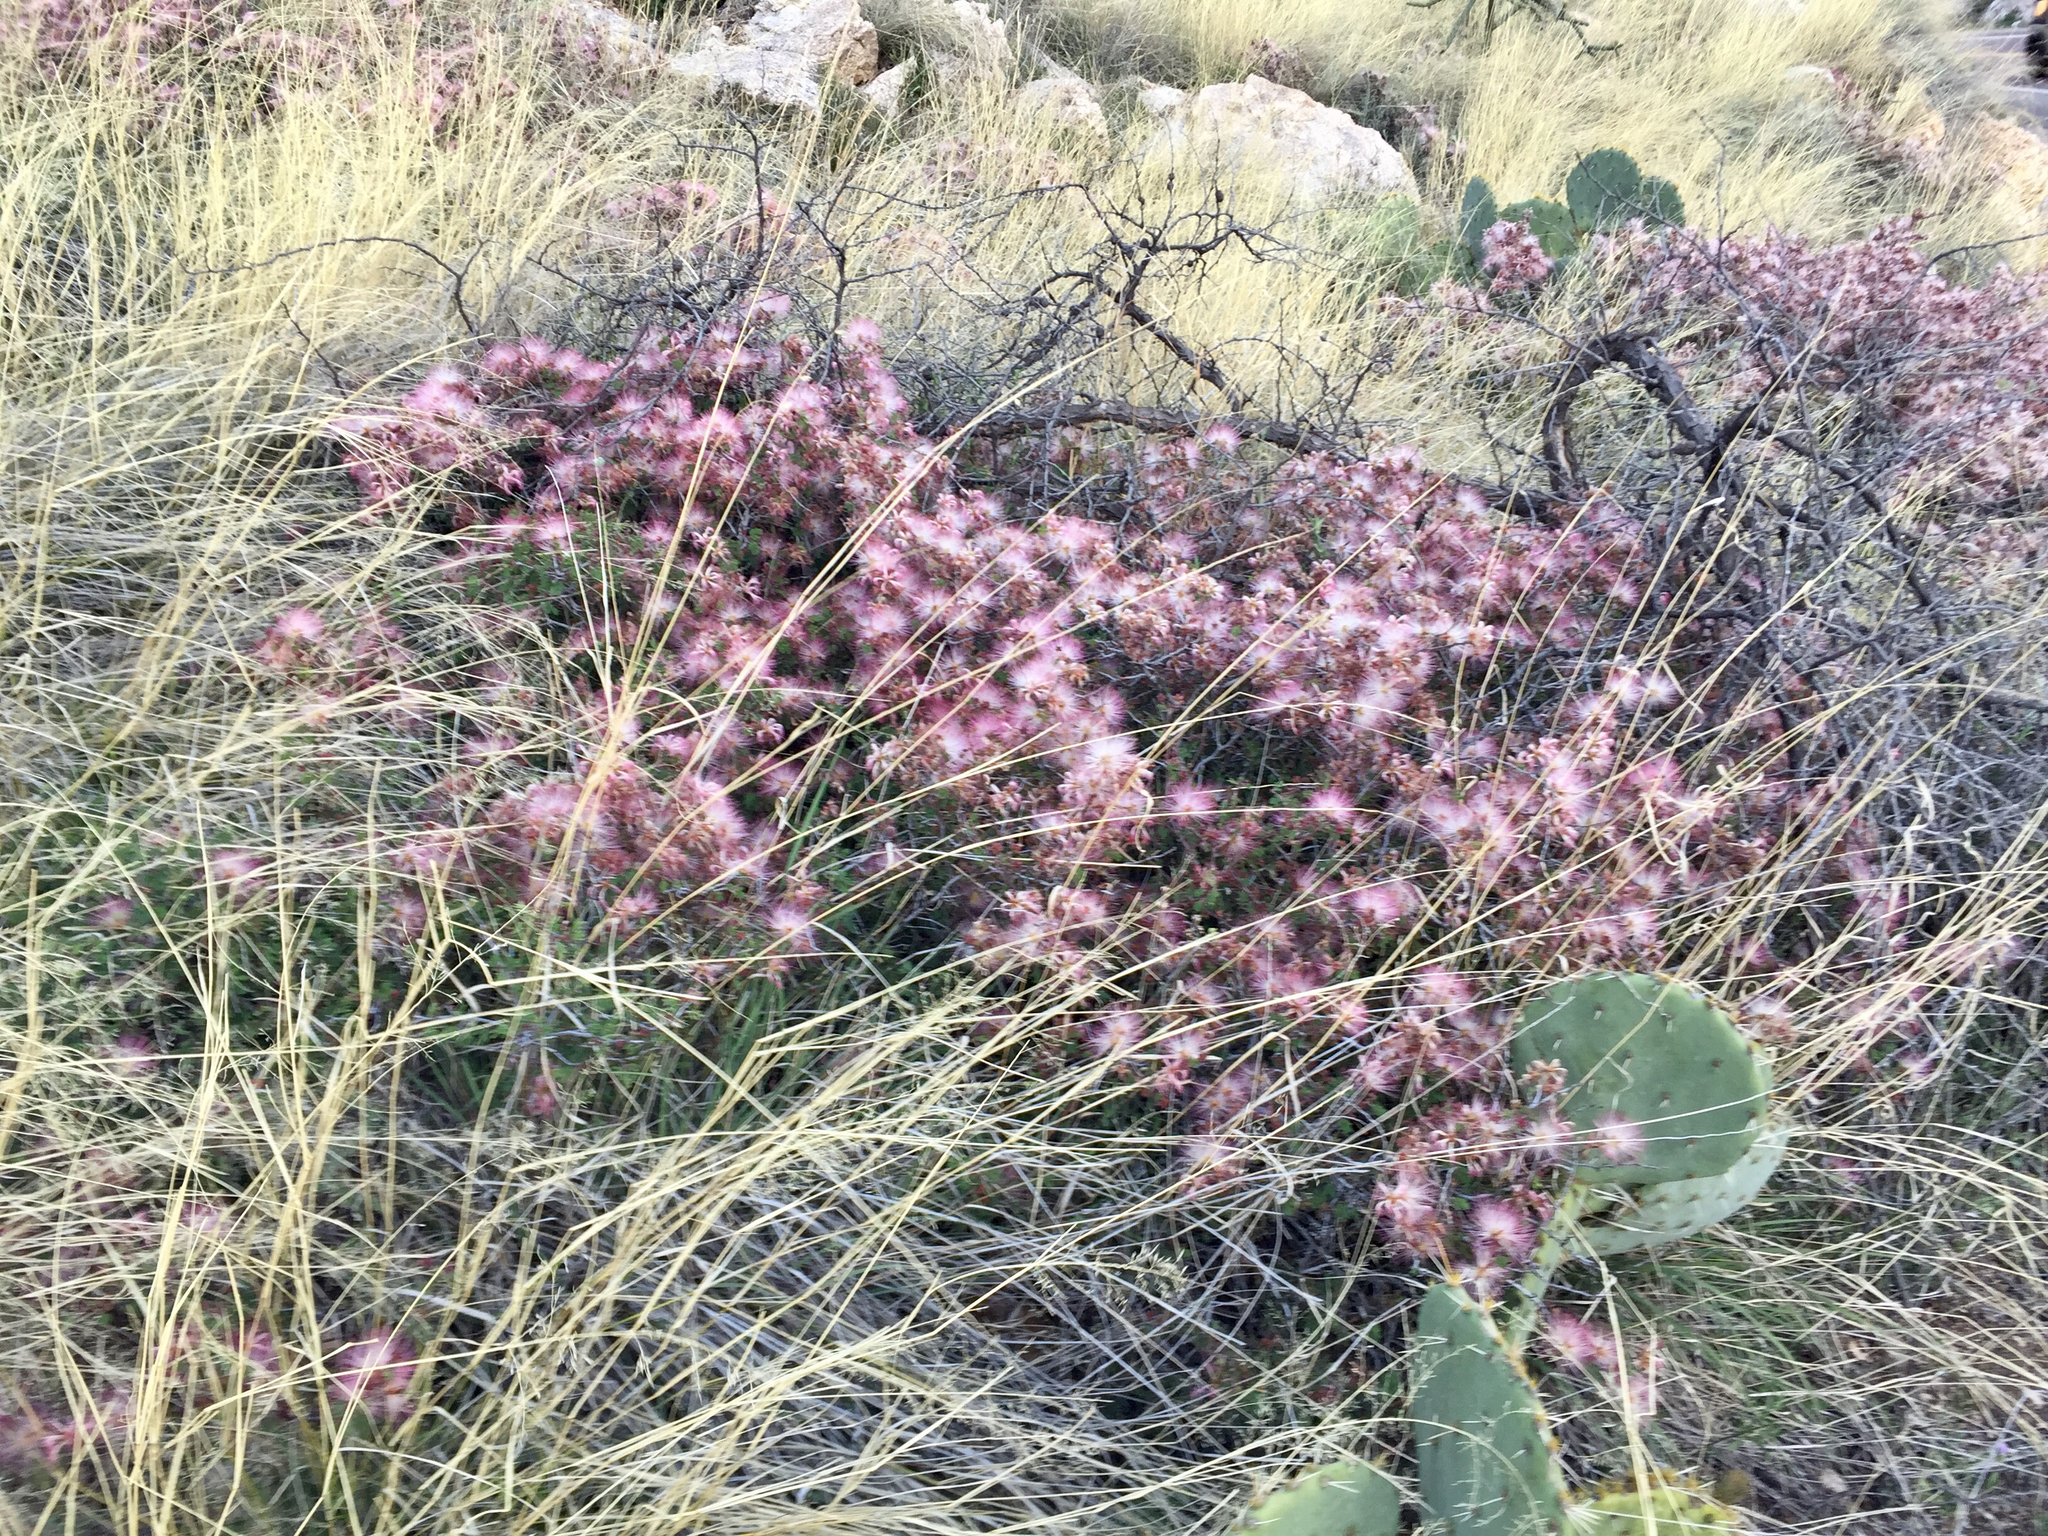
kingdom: Plantae
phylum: Tracheophyta
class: Magnoliopsida
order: Fabales
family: Fabaceae
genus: Calliandra
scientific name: Calliandra eriophylla
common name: Fairy-duster
